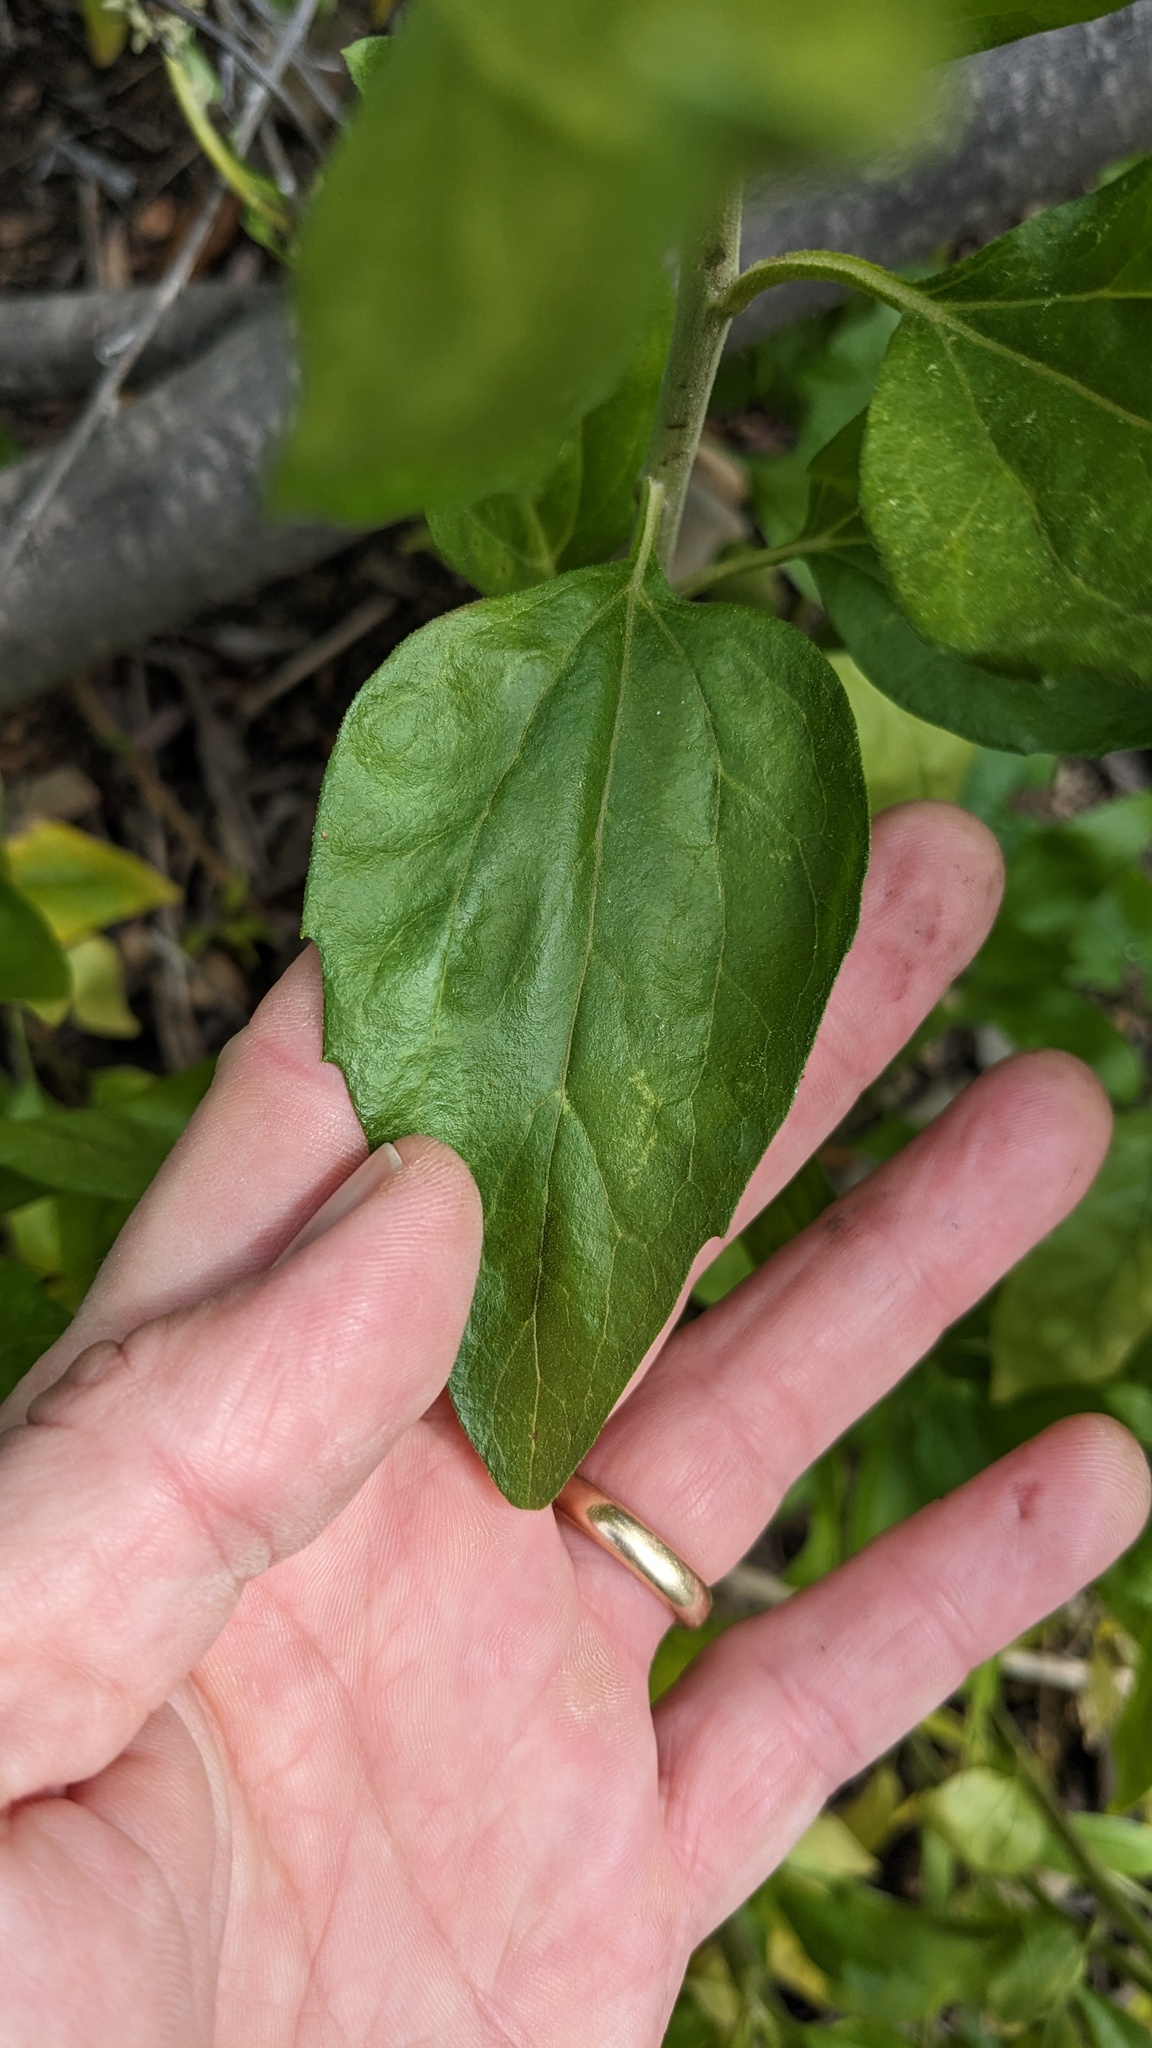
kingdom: Plantae
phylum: Tracheophyta
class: Magnoliopsida
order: Asterales
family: Asteraceae
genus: Encelia
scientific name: Encelia californica
